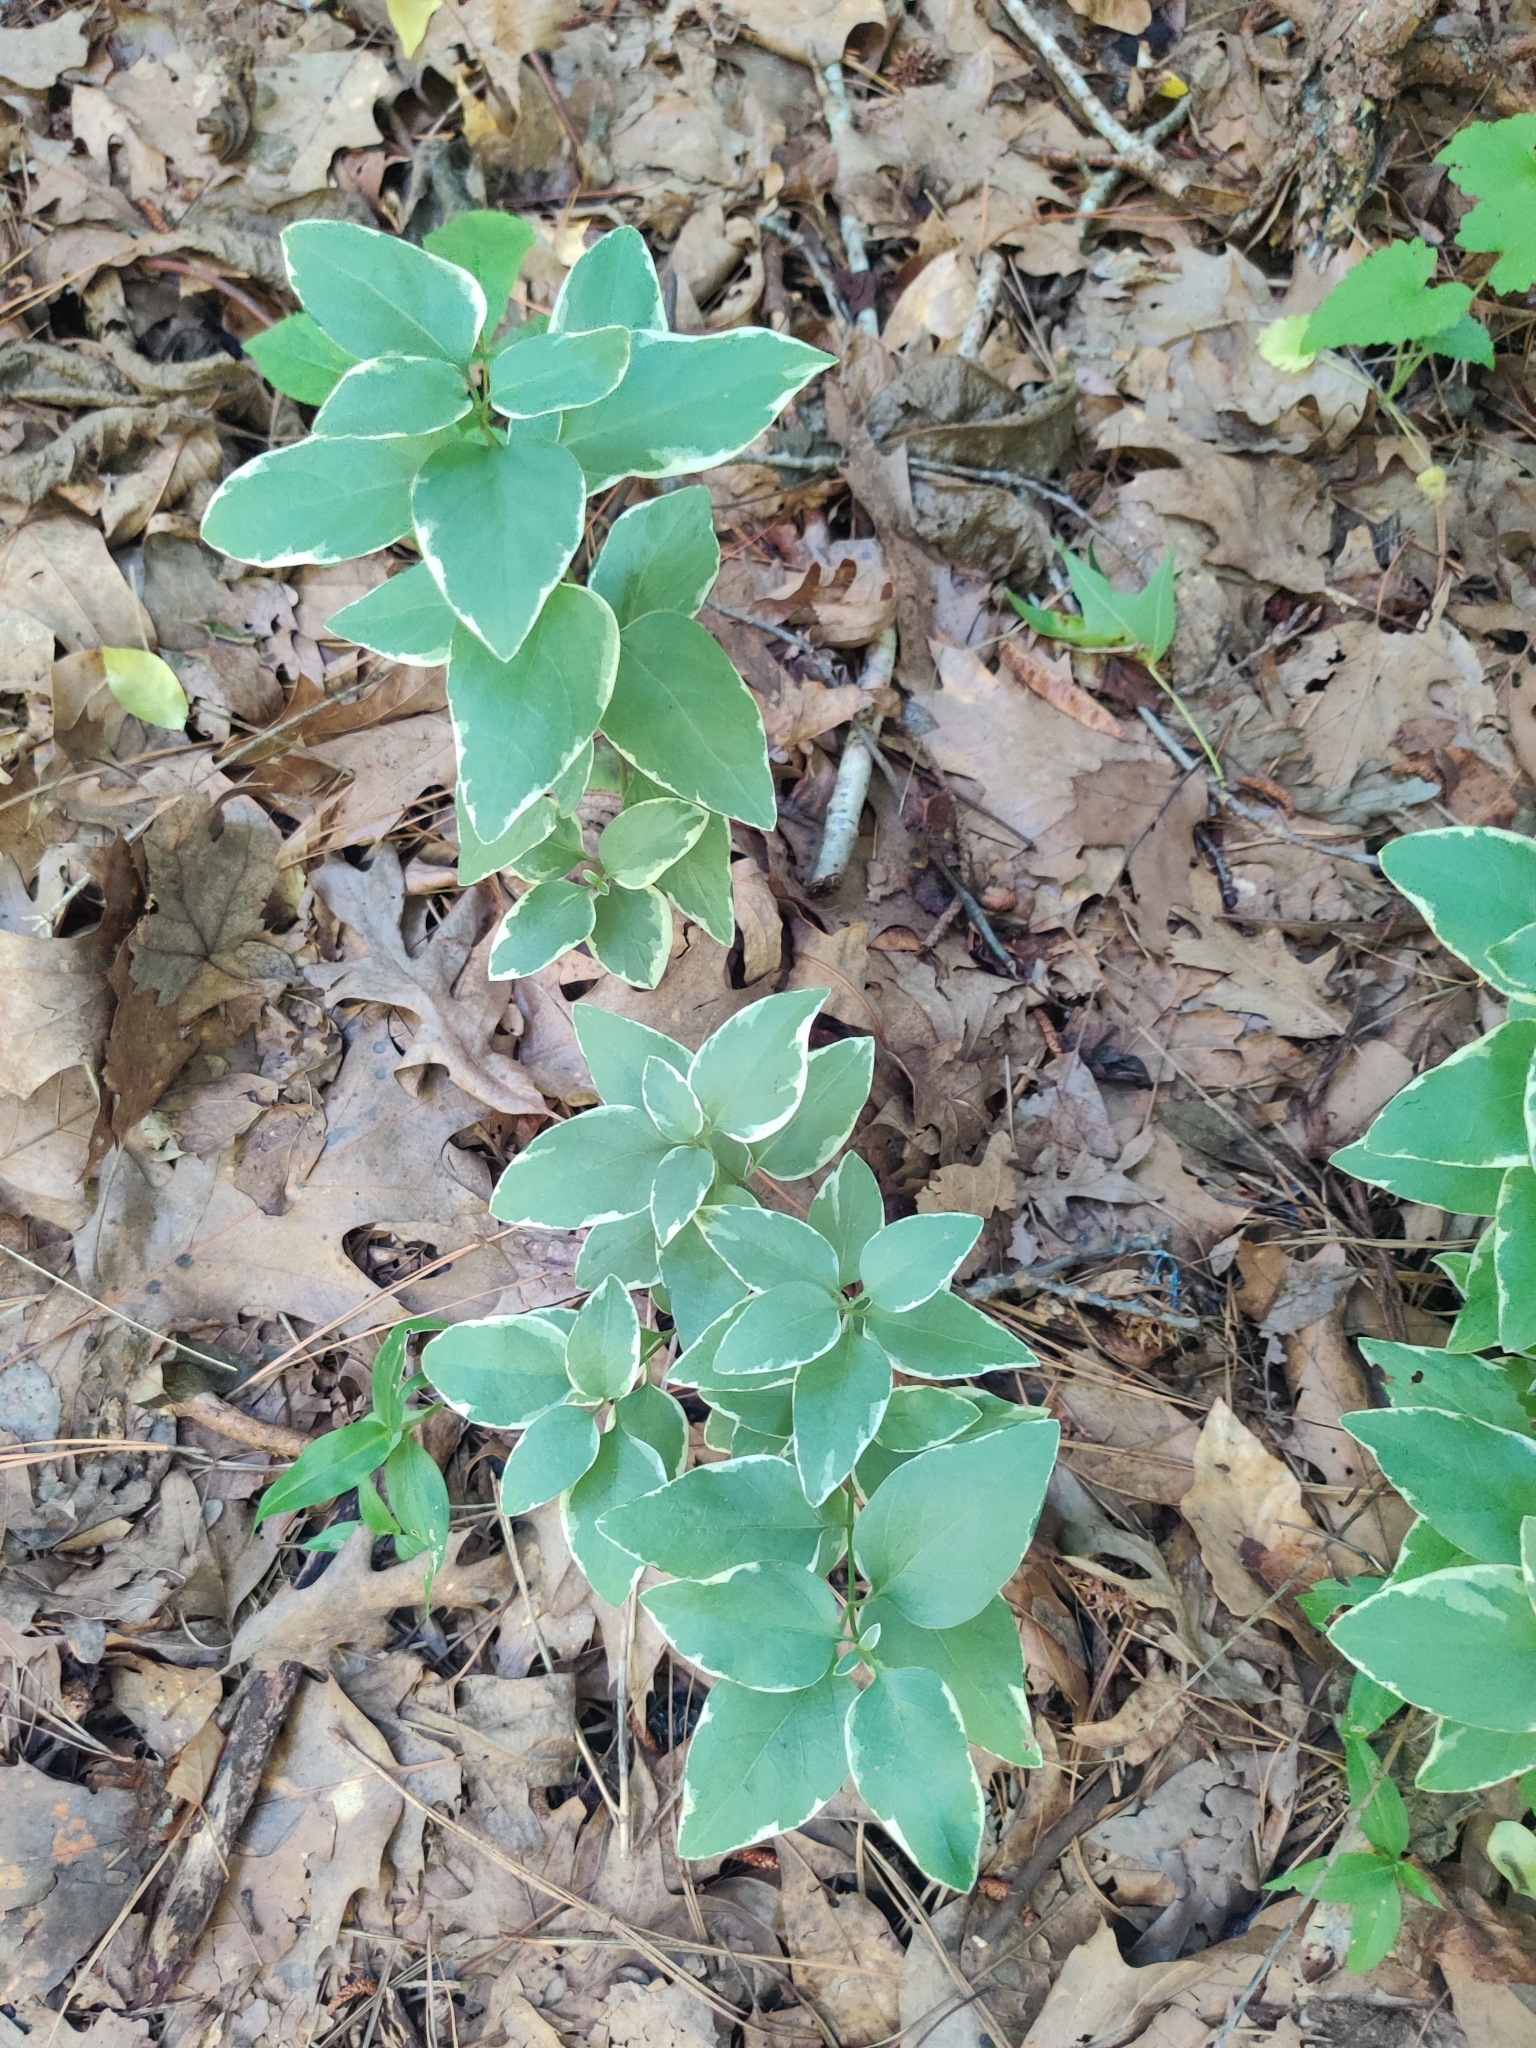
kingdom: Plantae
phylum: Tracheophyta
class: Magnoliopsida
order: Gentianales
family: Apocynaceae
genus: Vinca
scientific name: Vinca major
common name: Greater periwinkle
